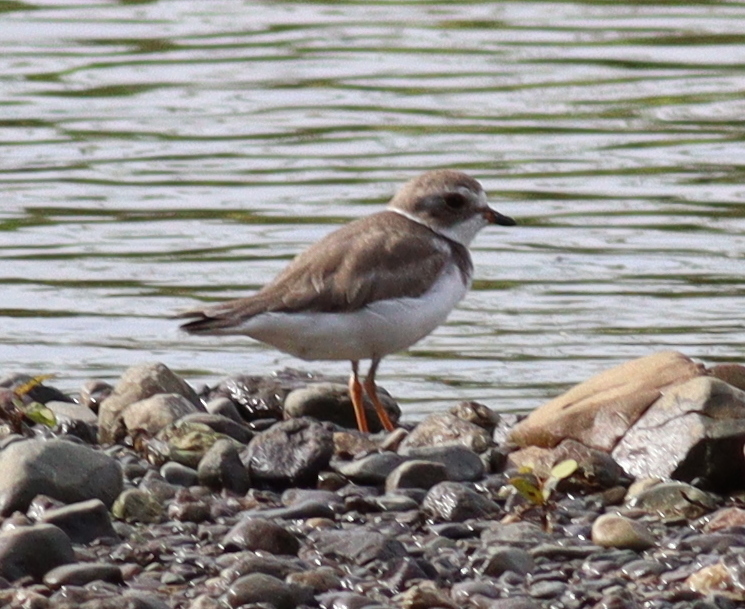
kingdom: Animalia
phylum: Chordata
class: Aves
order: Charadriiformes
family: Charadriidae
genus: Charadrius
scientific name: Charadrius semipalmatus
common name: Semipalmated plover
